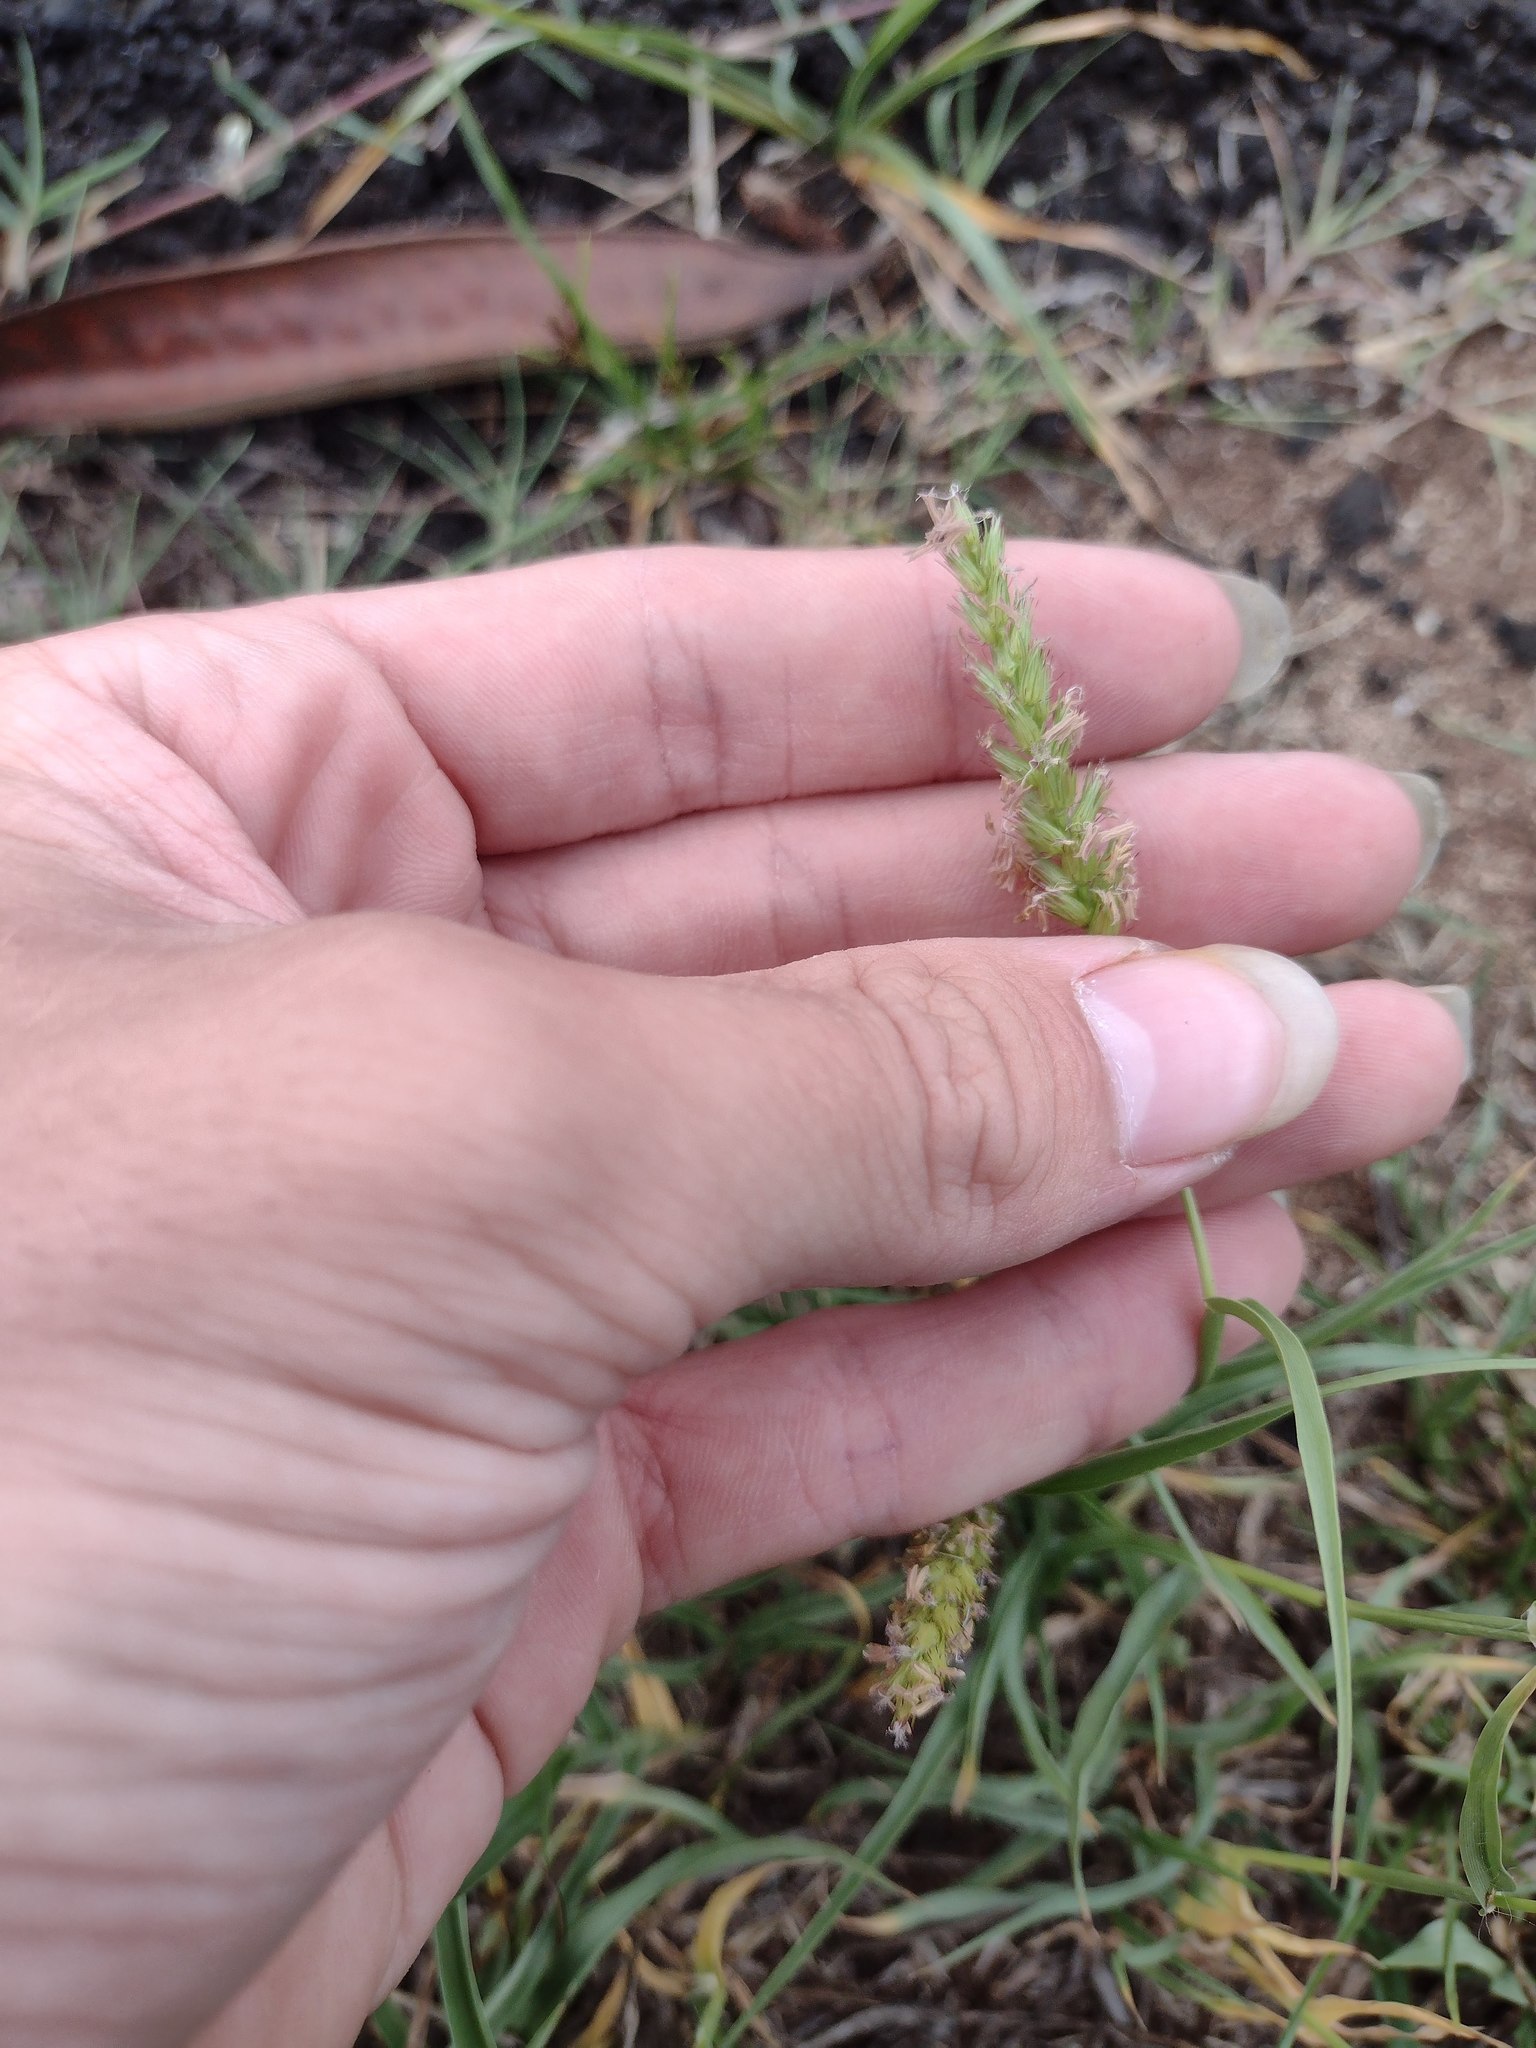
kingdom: Plantae
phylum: Tracheophyta
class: Liliopsida
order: Poales
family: Poaceae
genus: Cenchrus
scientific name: Cenchrus setigerus
